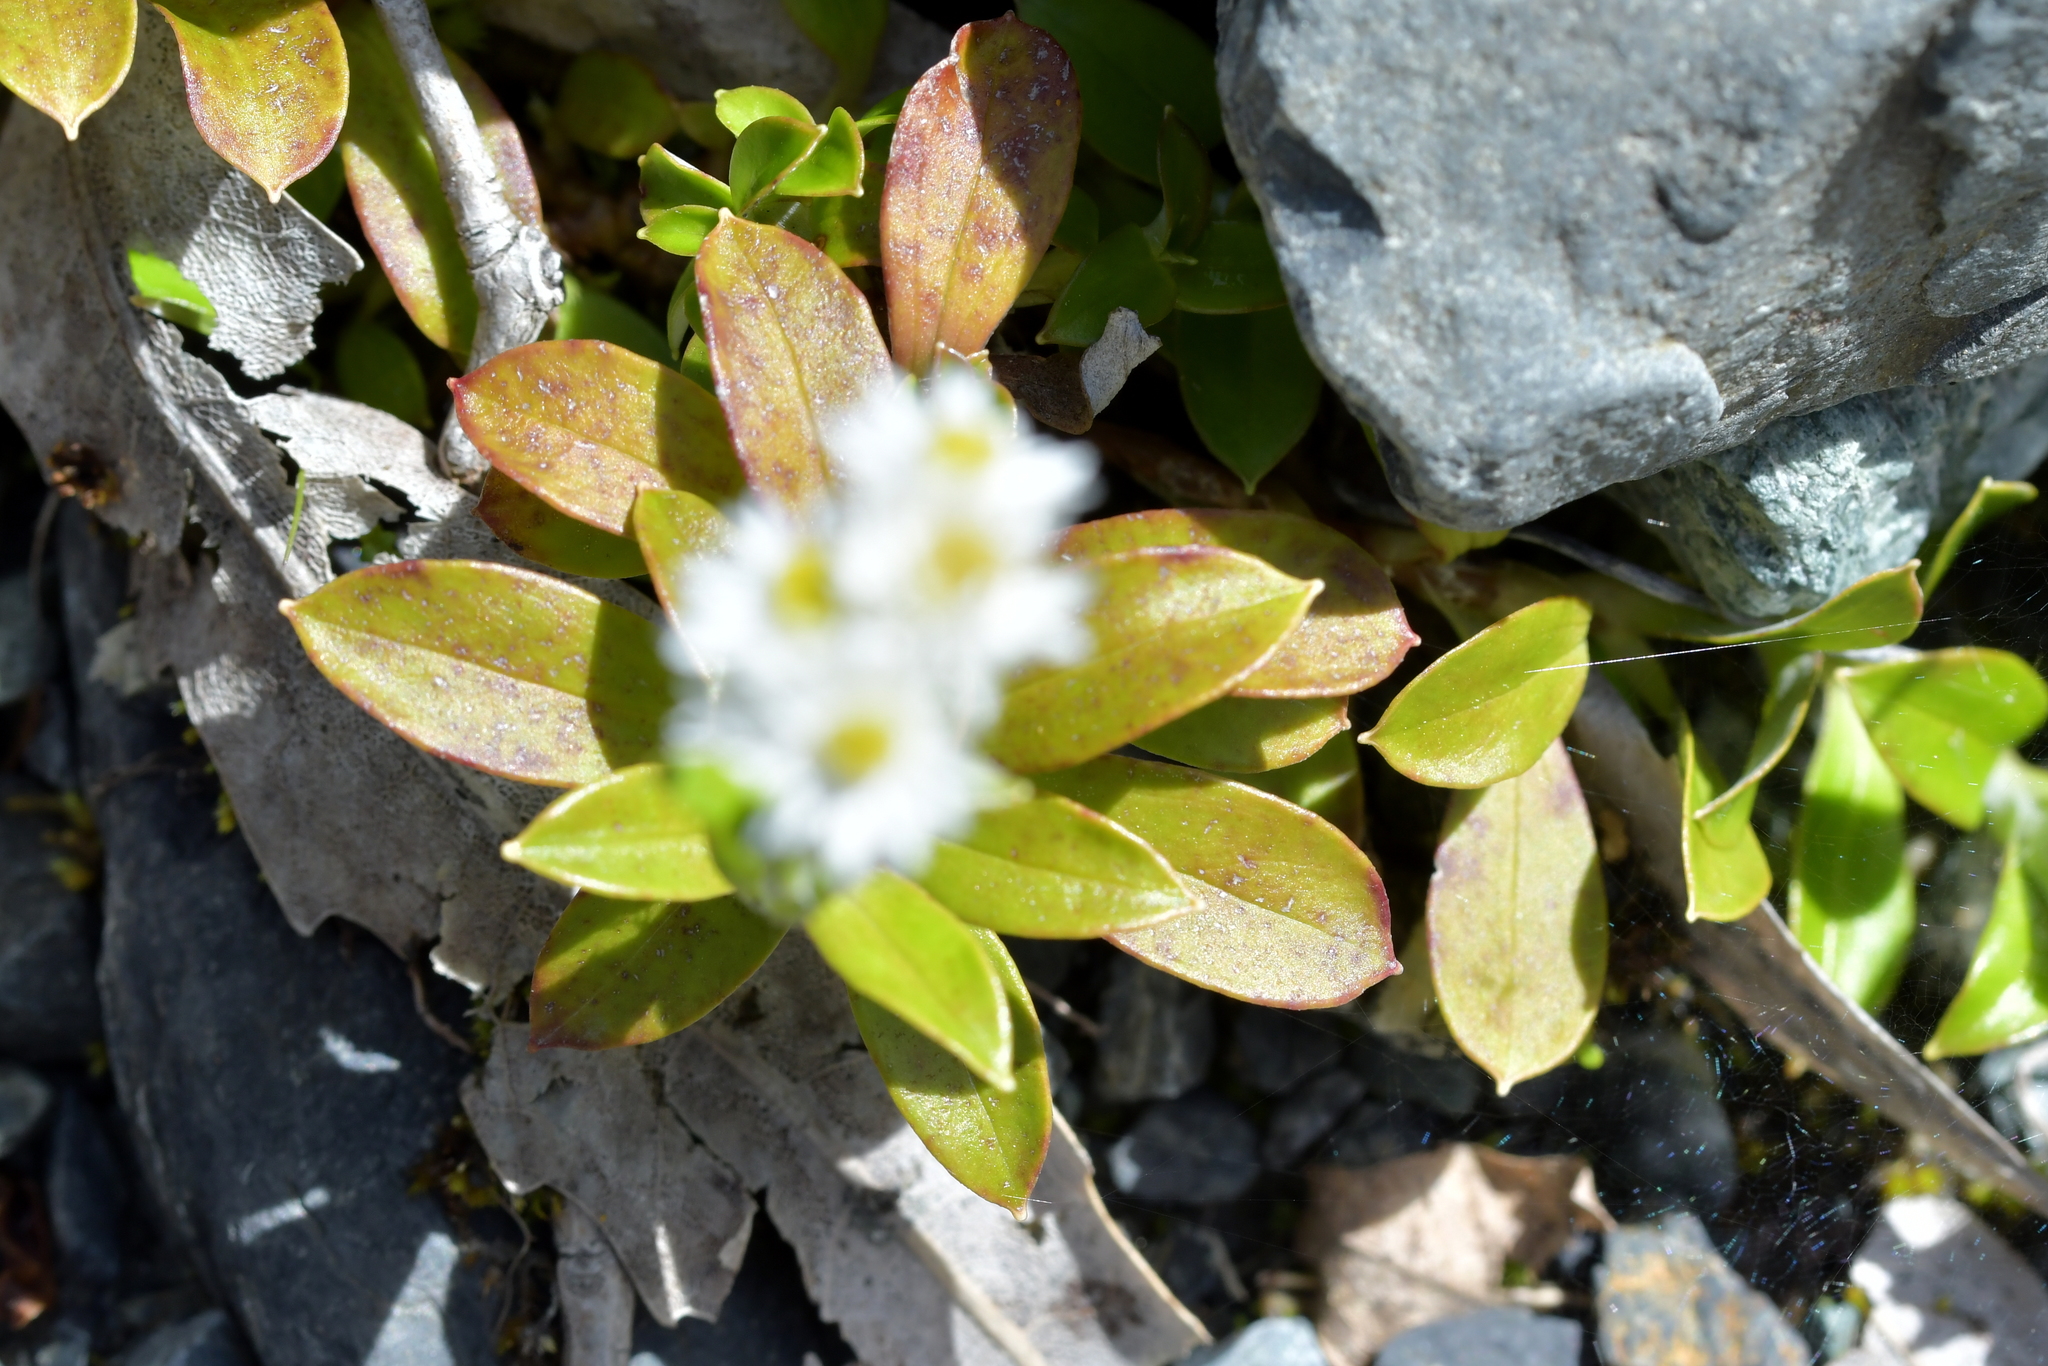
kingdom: Plantae
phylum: Tracheophyta
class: Magnoliopsida
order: Asterales
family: Asteraceae
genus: Anaphalioides
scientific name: Anaphalioides trinervis
